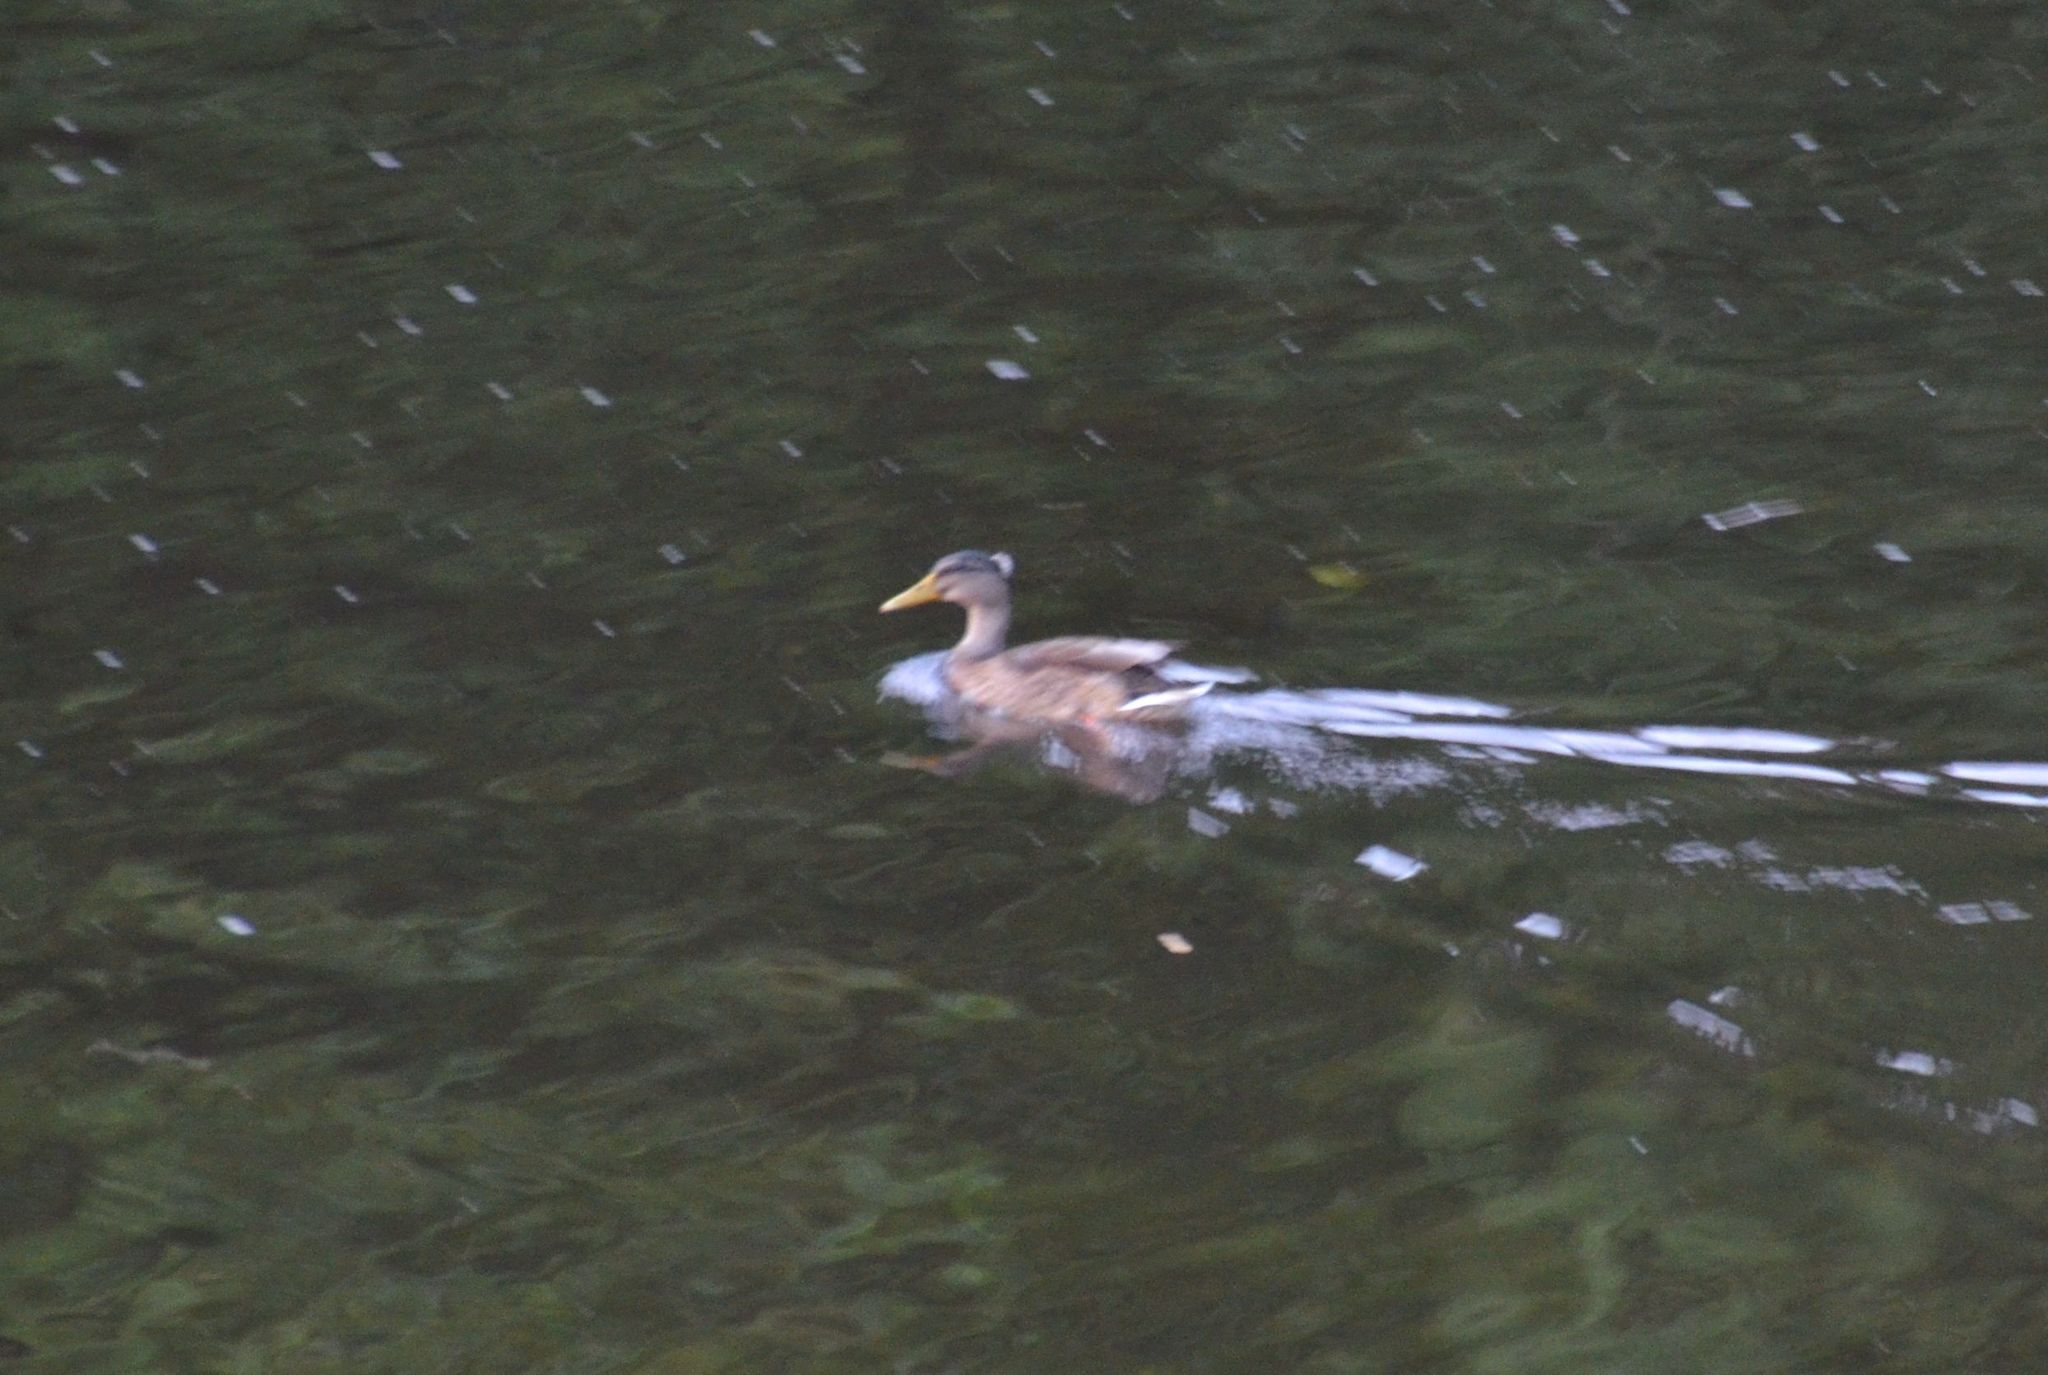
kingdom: Animalia
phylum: Chordata
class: Aves
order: Anseriformes
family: Anatidae
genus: Anas
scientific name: Anas platyrhynchos
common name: Mallard
